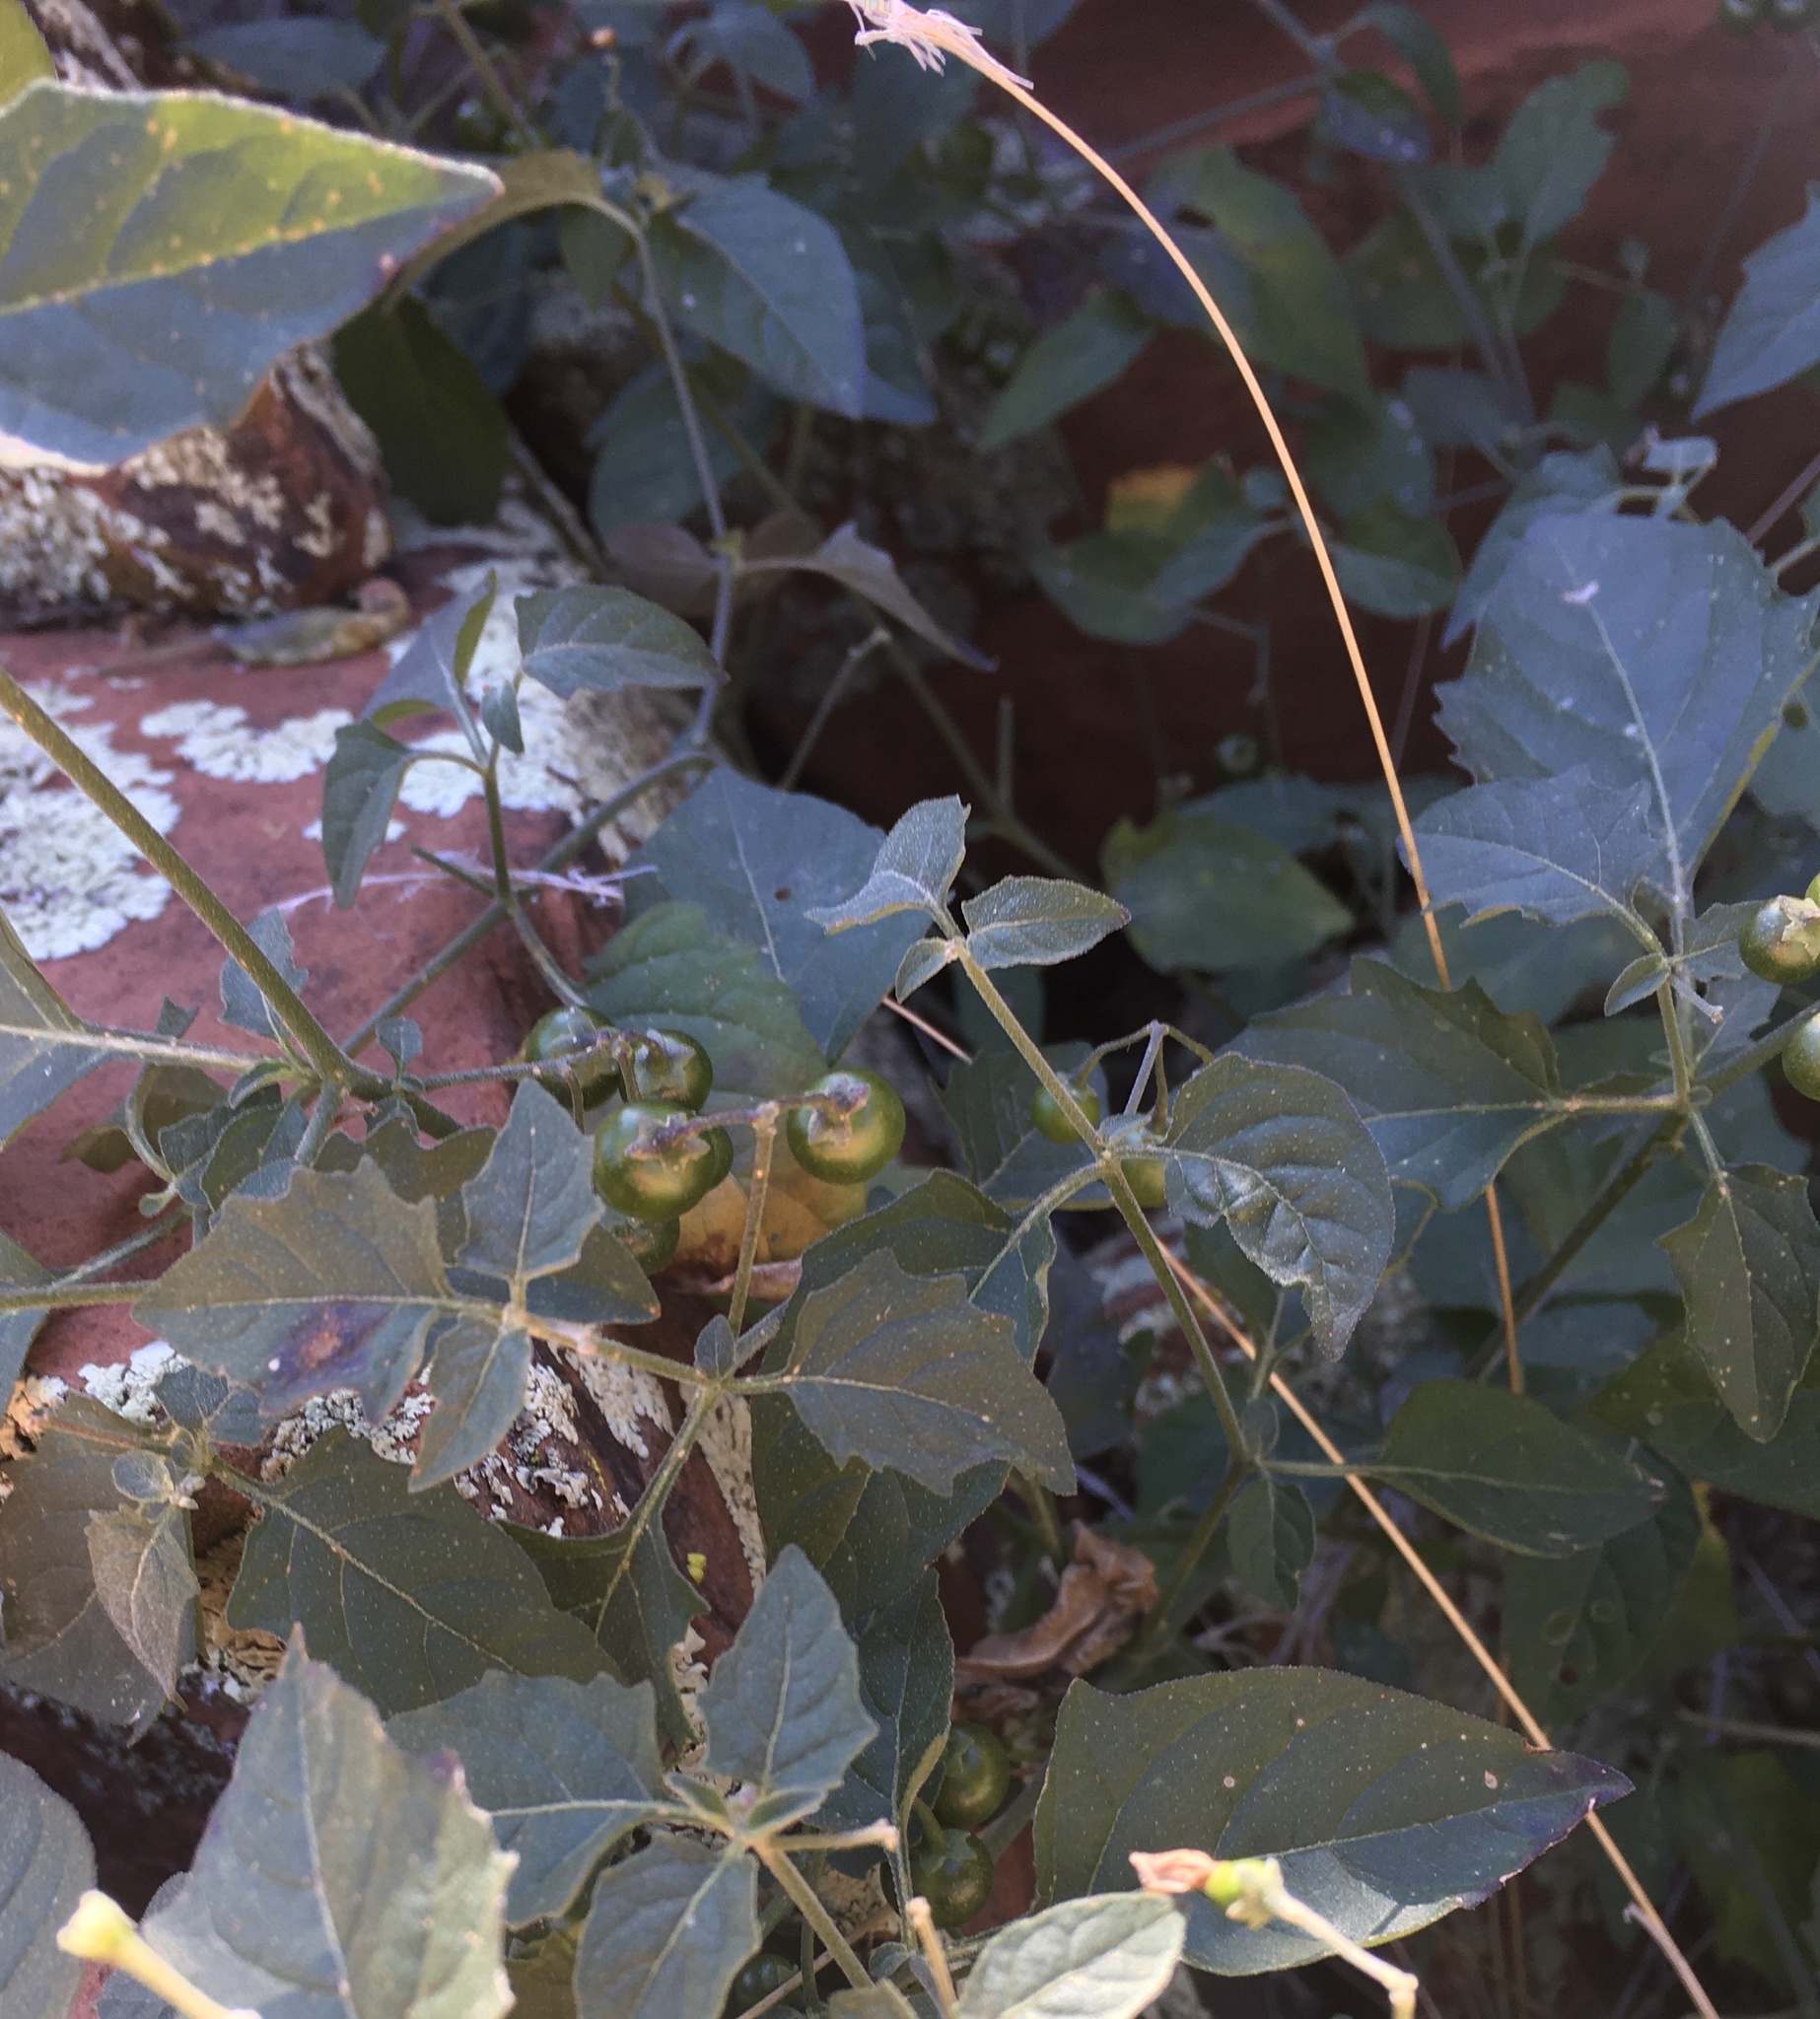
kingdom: Plantae
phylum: Tracheophyta
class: Magnoliopsida
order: Solanales
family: Solanaceae
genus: Solanum
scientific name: Solanum douglasii
